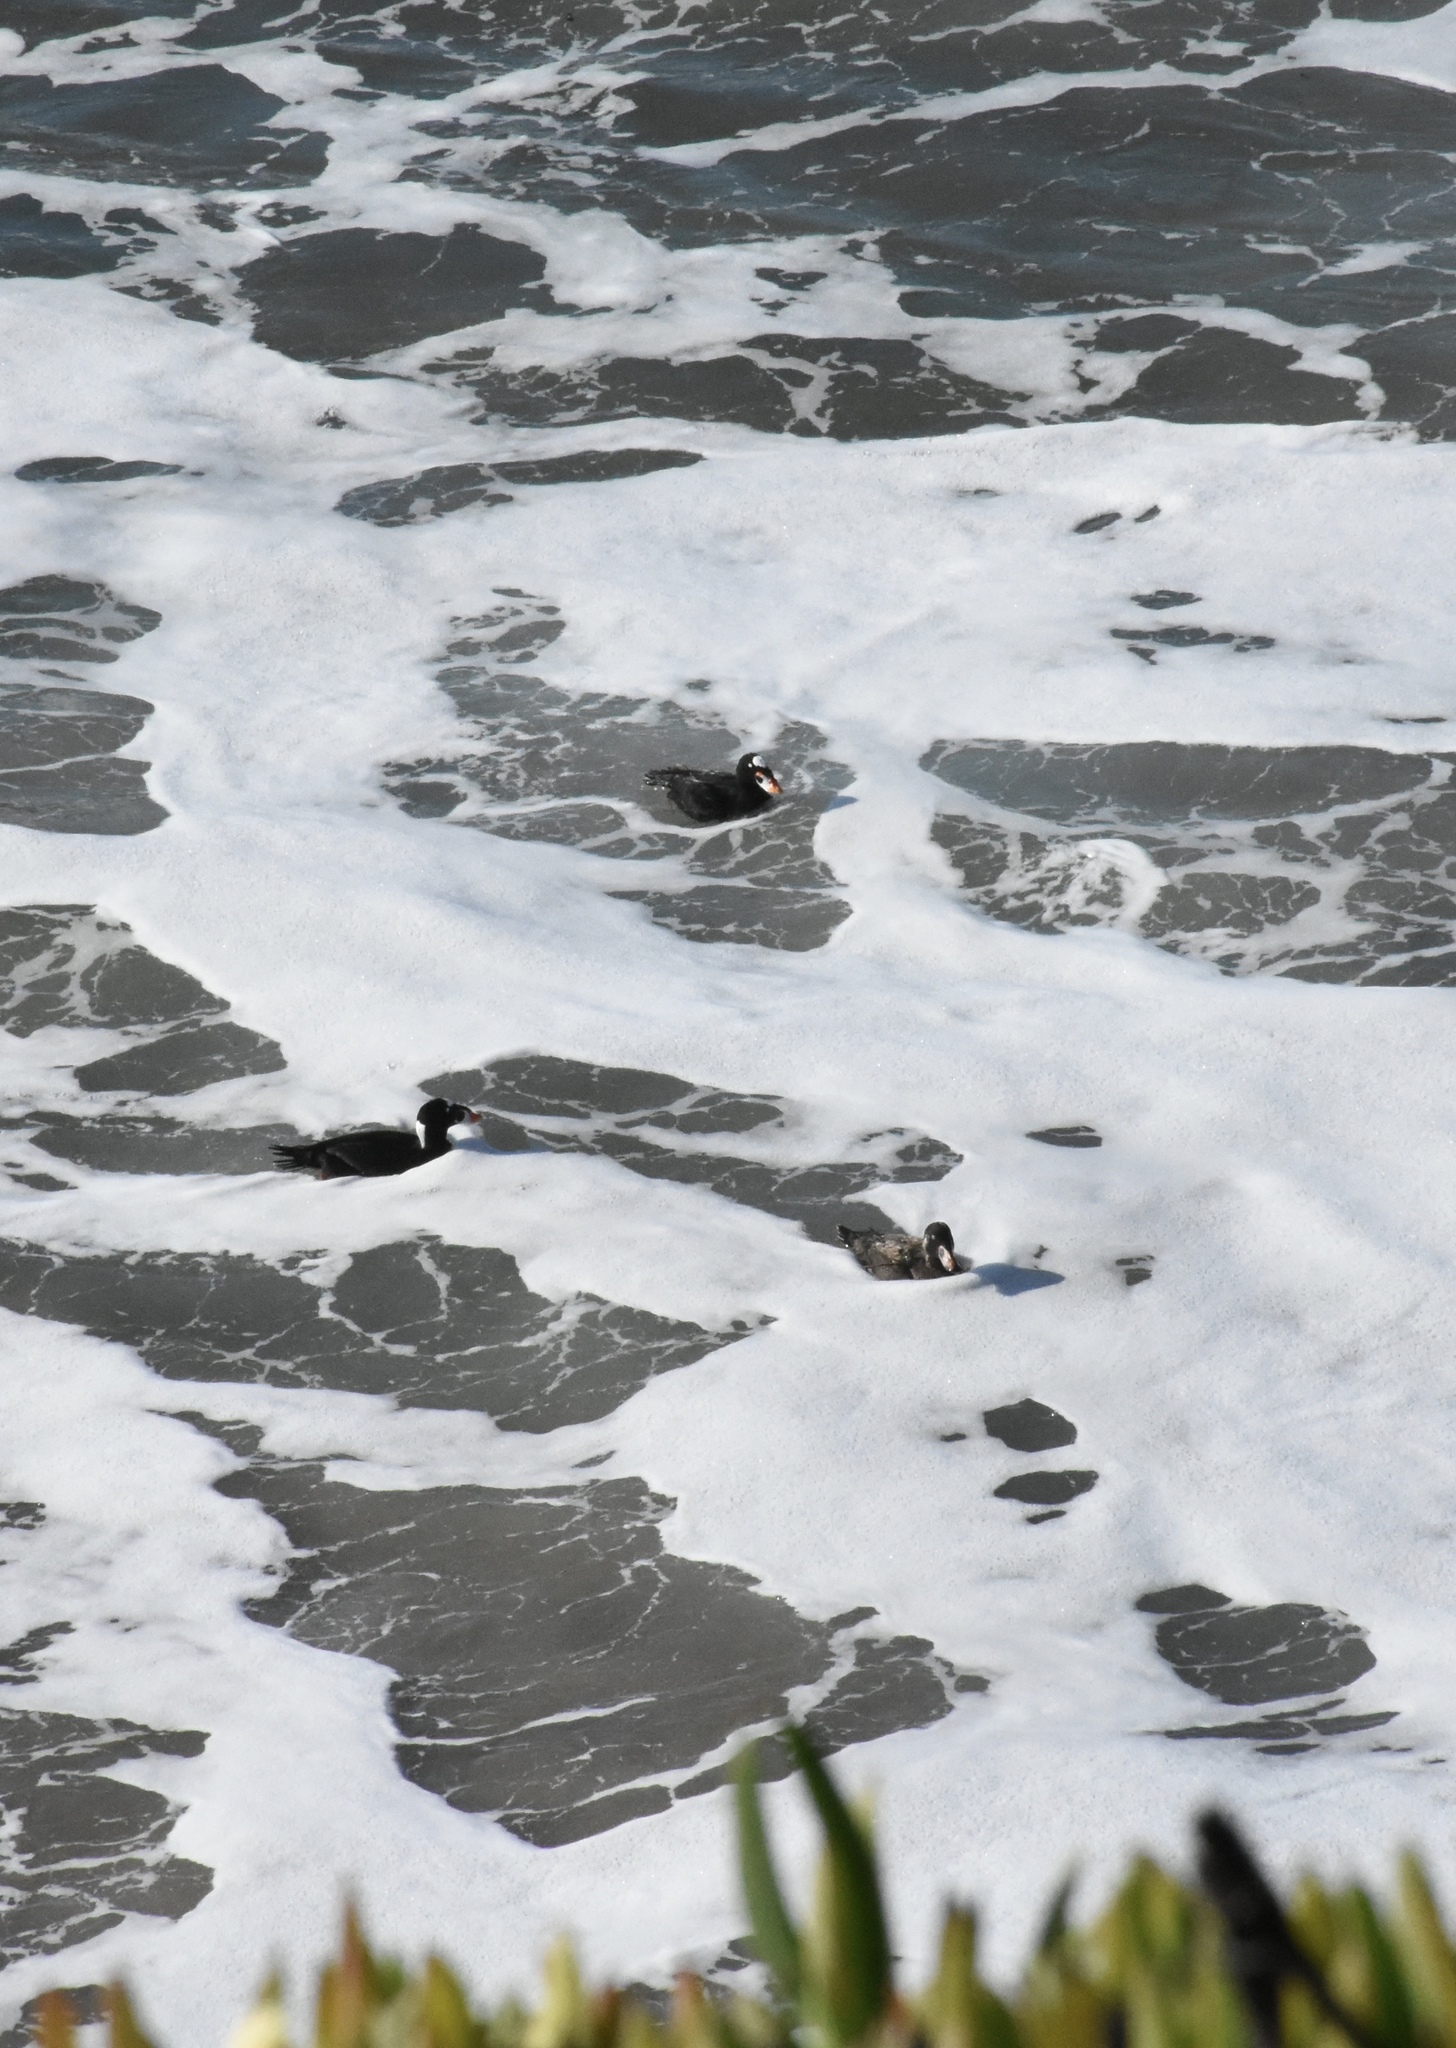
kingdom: Animalia
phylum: Chordata
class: Aves
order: Anseriformes
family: Anatidae
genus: Melanitta
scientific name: Melanitta perspicillata
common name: Surf scoter
